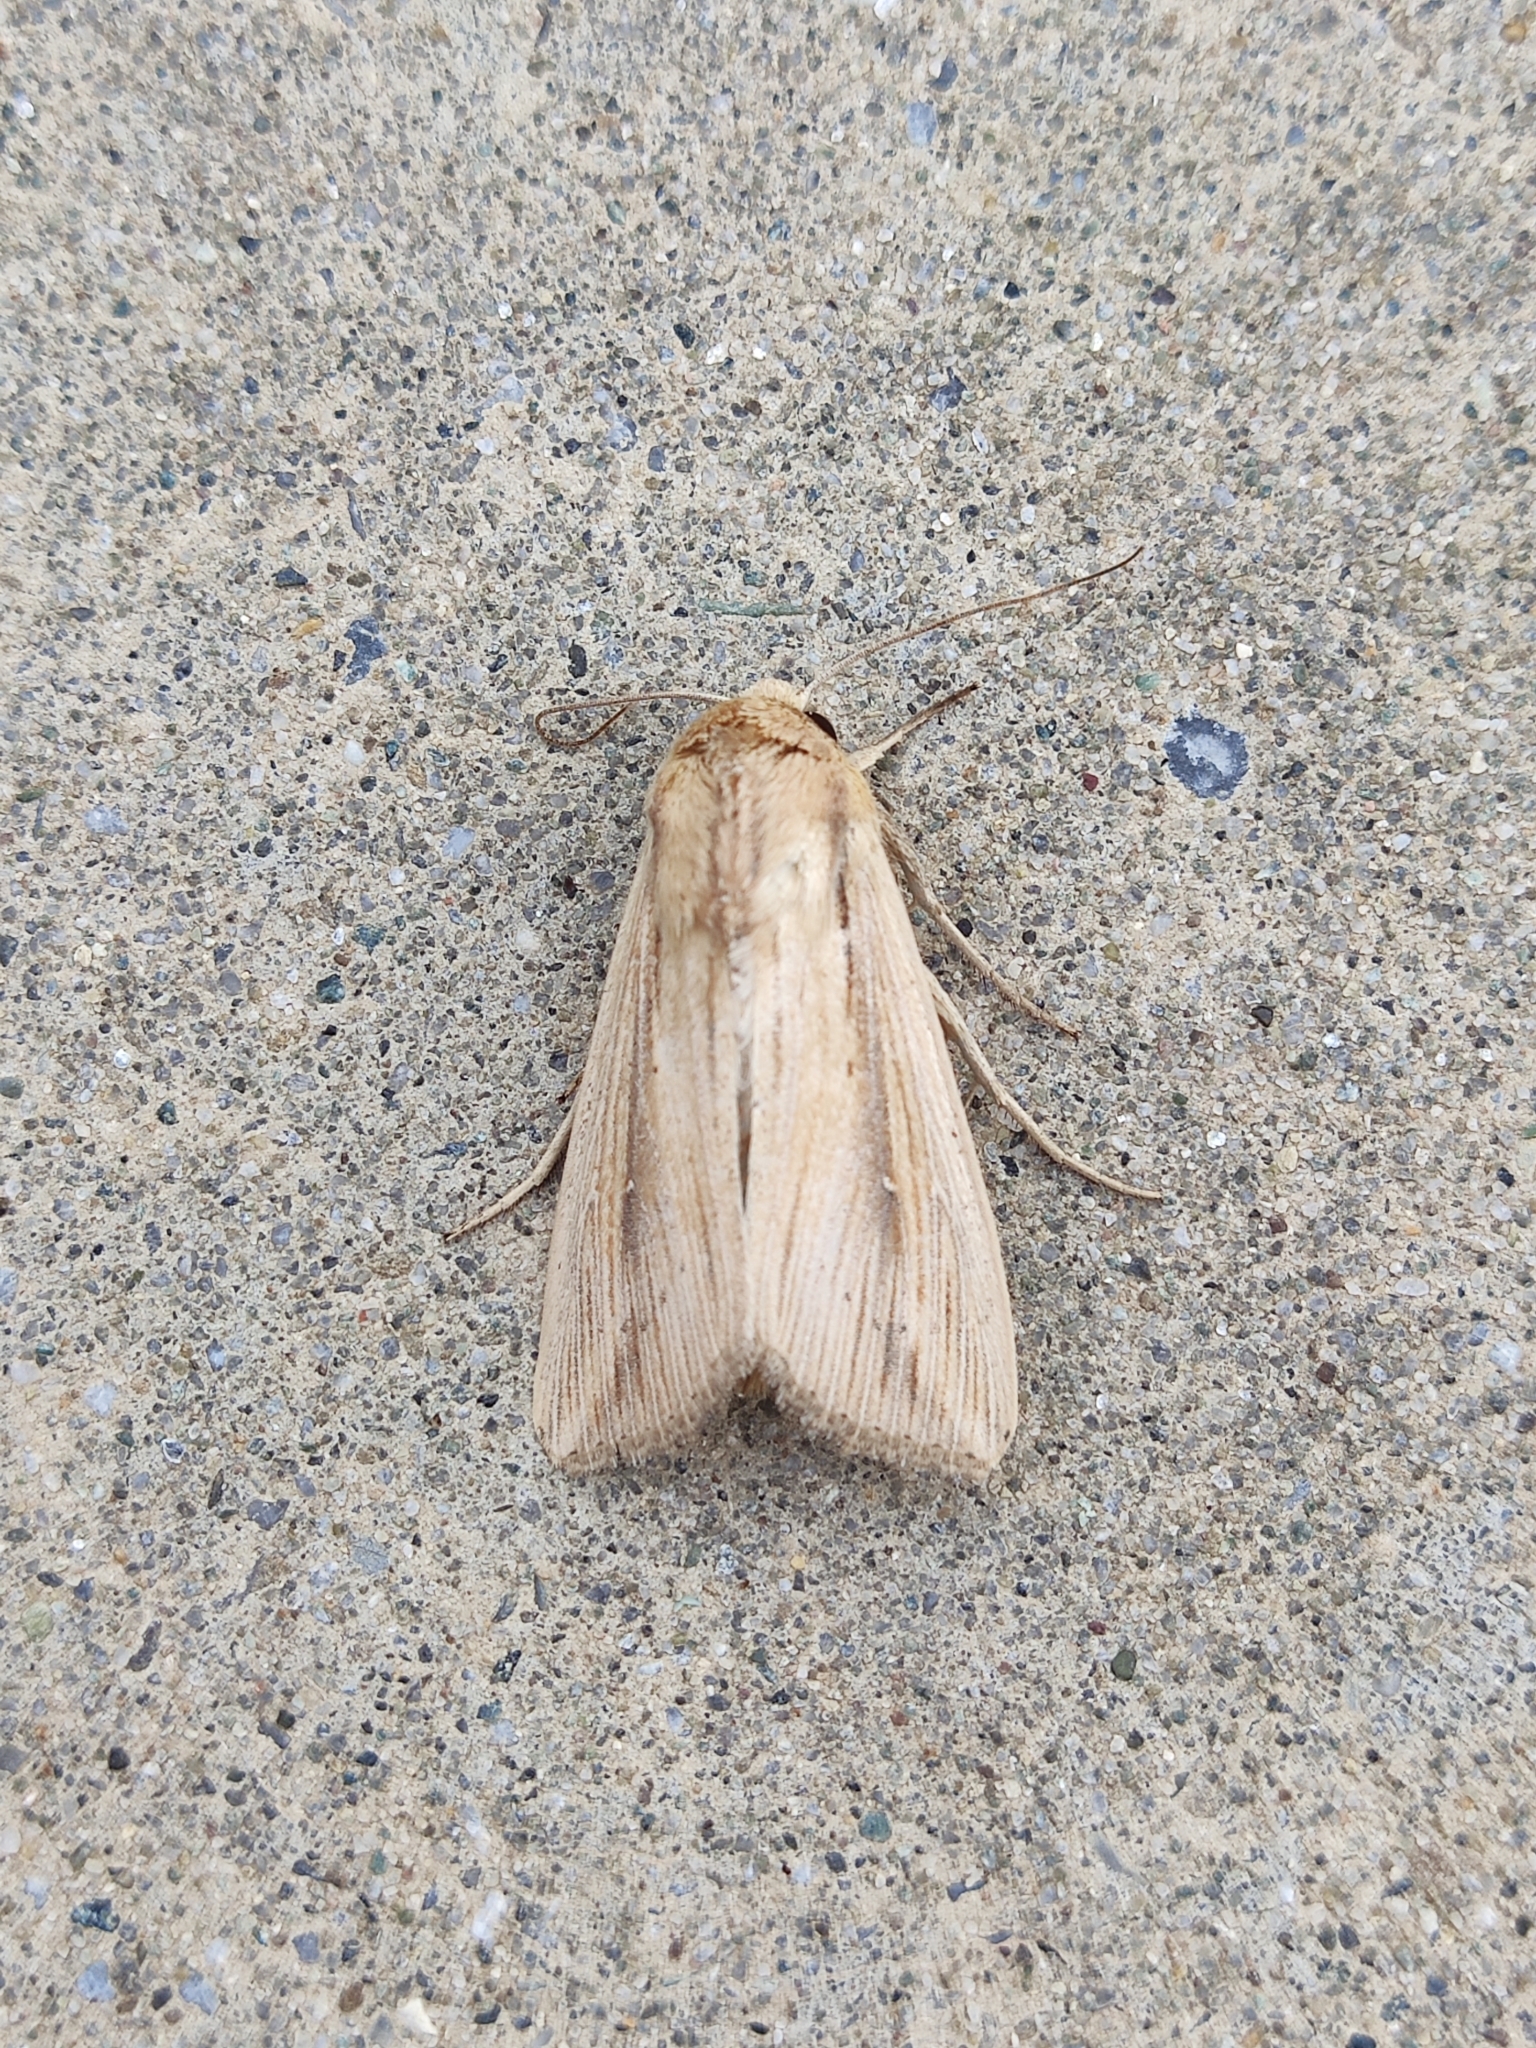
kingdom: Animalia
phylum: Arthropoda
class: Insecta
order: Lepidoptera
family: Noctuidae
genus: Leucania
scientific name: Leucania loreyi
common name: The cosmopolitan
